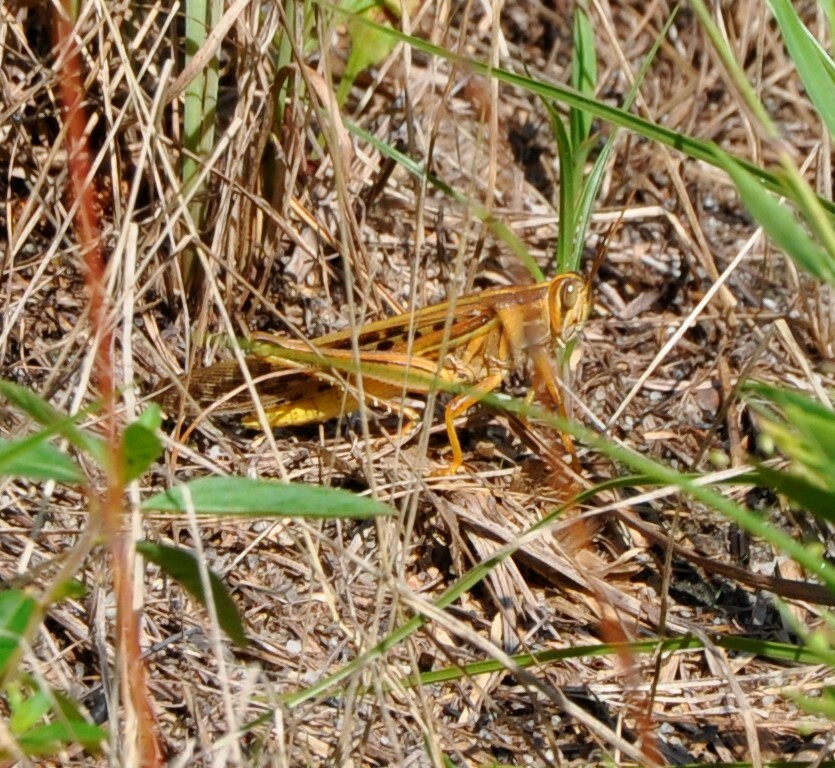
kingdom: Animalia
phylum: Arthropoda
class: Insecta
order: Orthoptera
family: Acrididae
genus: Schistocerca
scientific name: Schistocerca americana
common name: American bird locust
